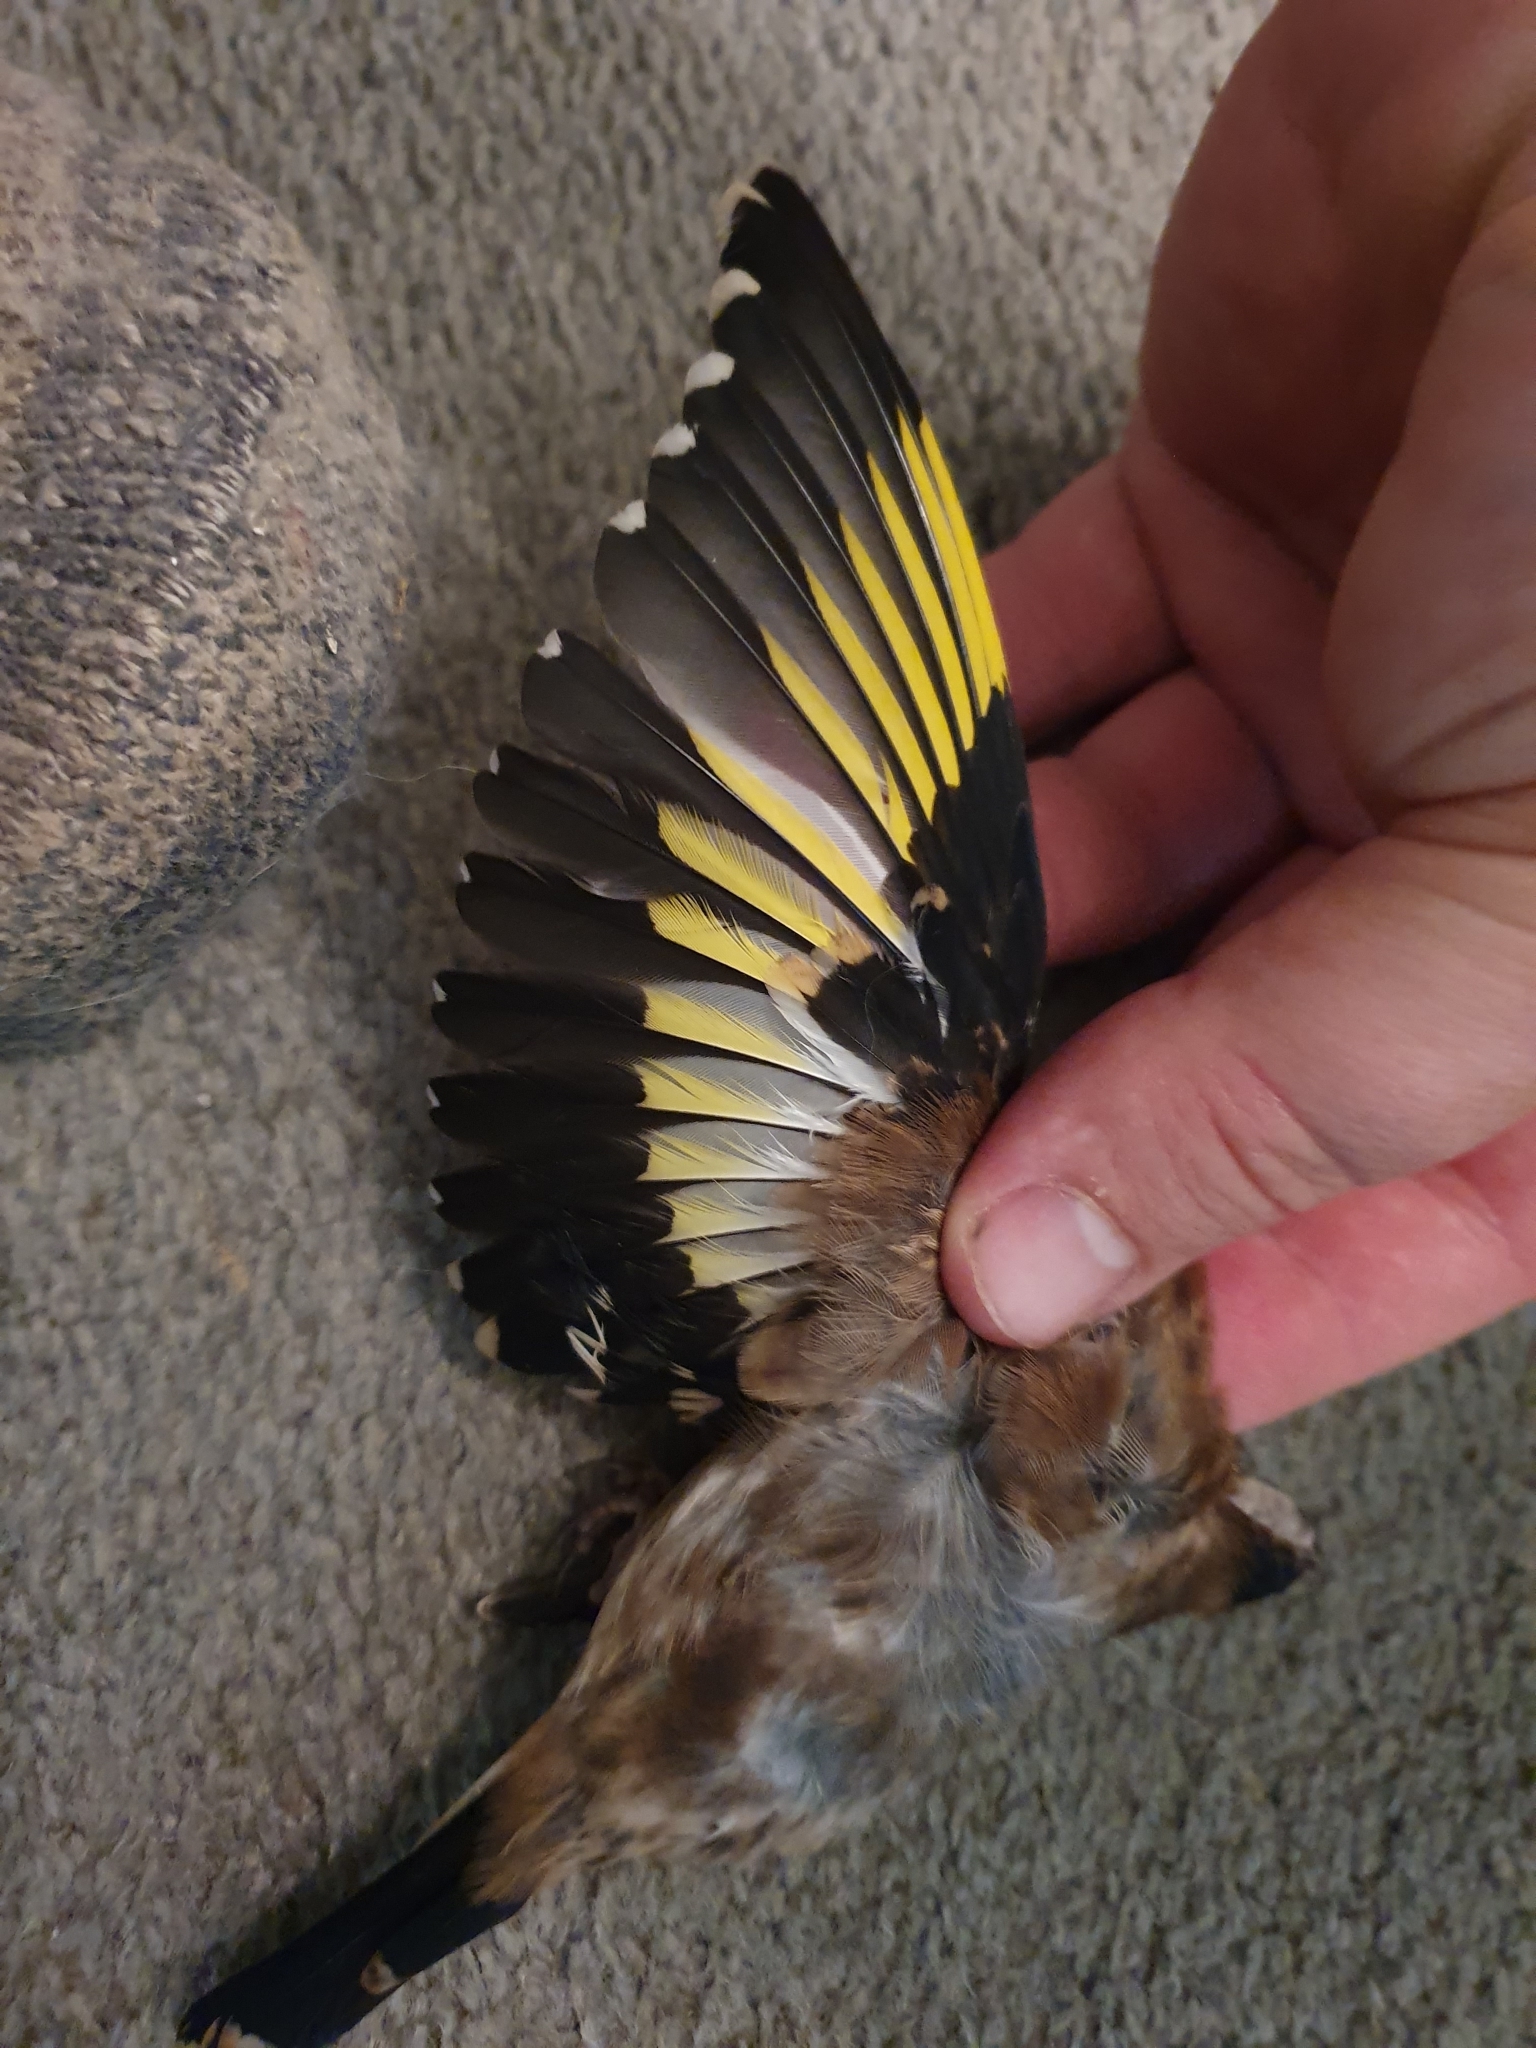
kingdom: Animalia
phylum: Chordata
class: Aves
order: Passeriformes
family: Fringillidae
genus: Carduelis
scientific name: Carduelis carduelis
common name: European goldfinch
